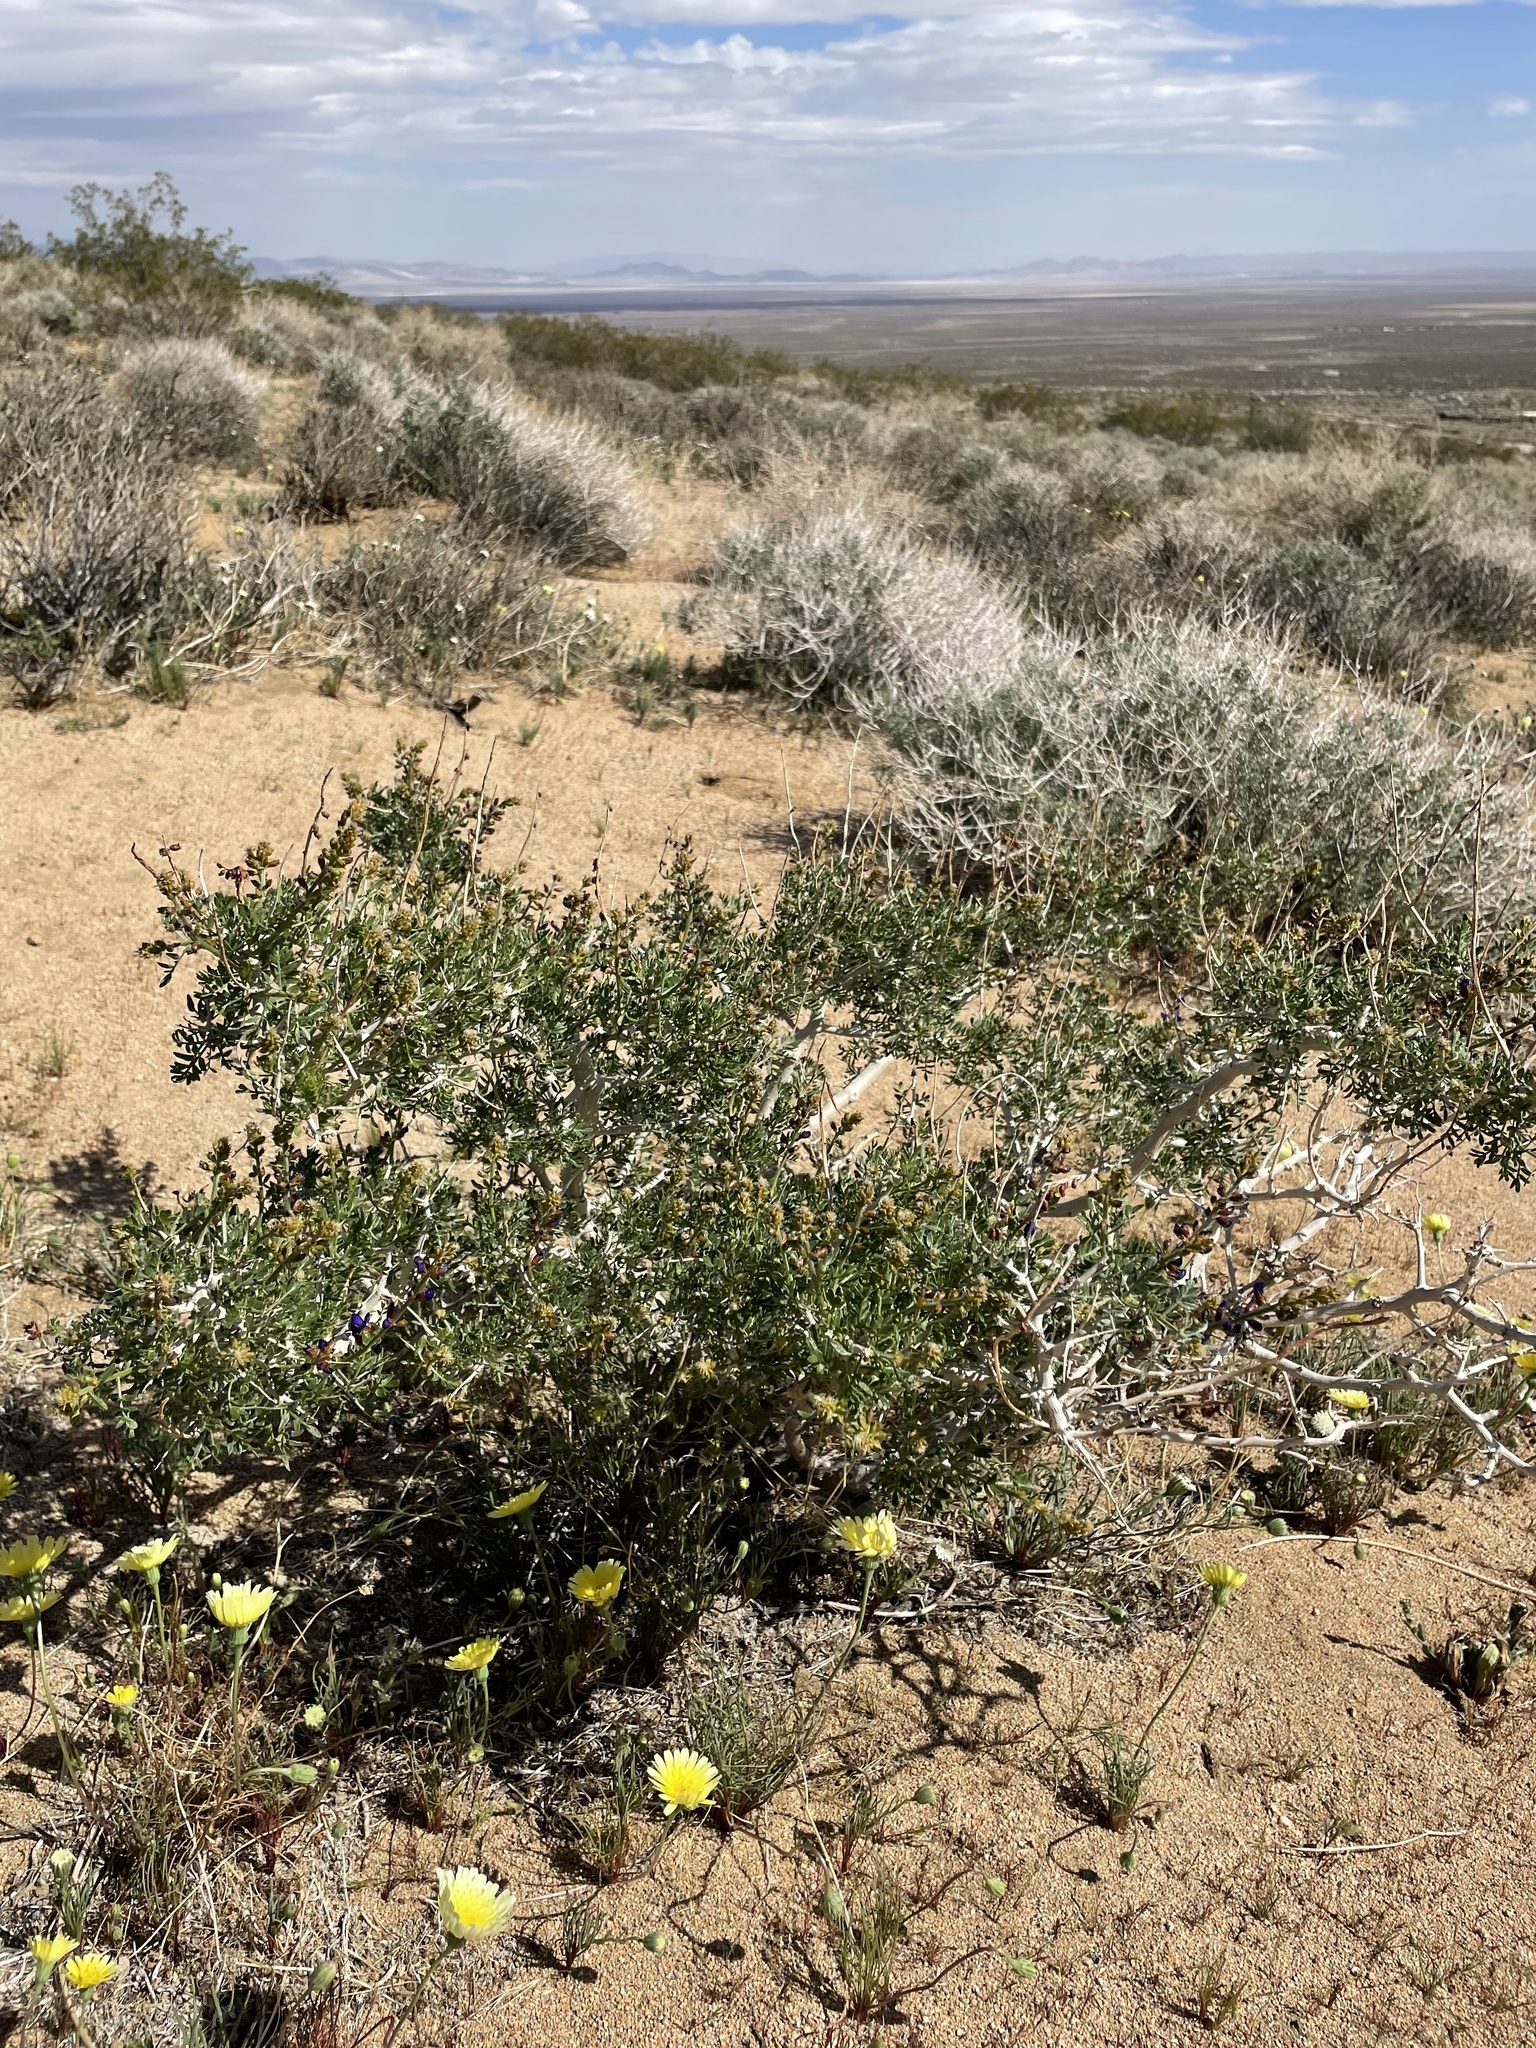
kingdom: Plantae
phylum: Tracheophyta
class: Magnoliopsida
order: Fabales
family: Fabaceae
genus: Psorothamnus
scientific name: Psorothamnus arborescens
